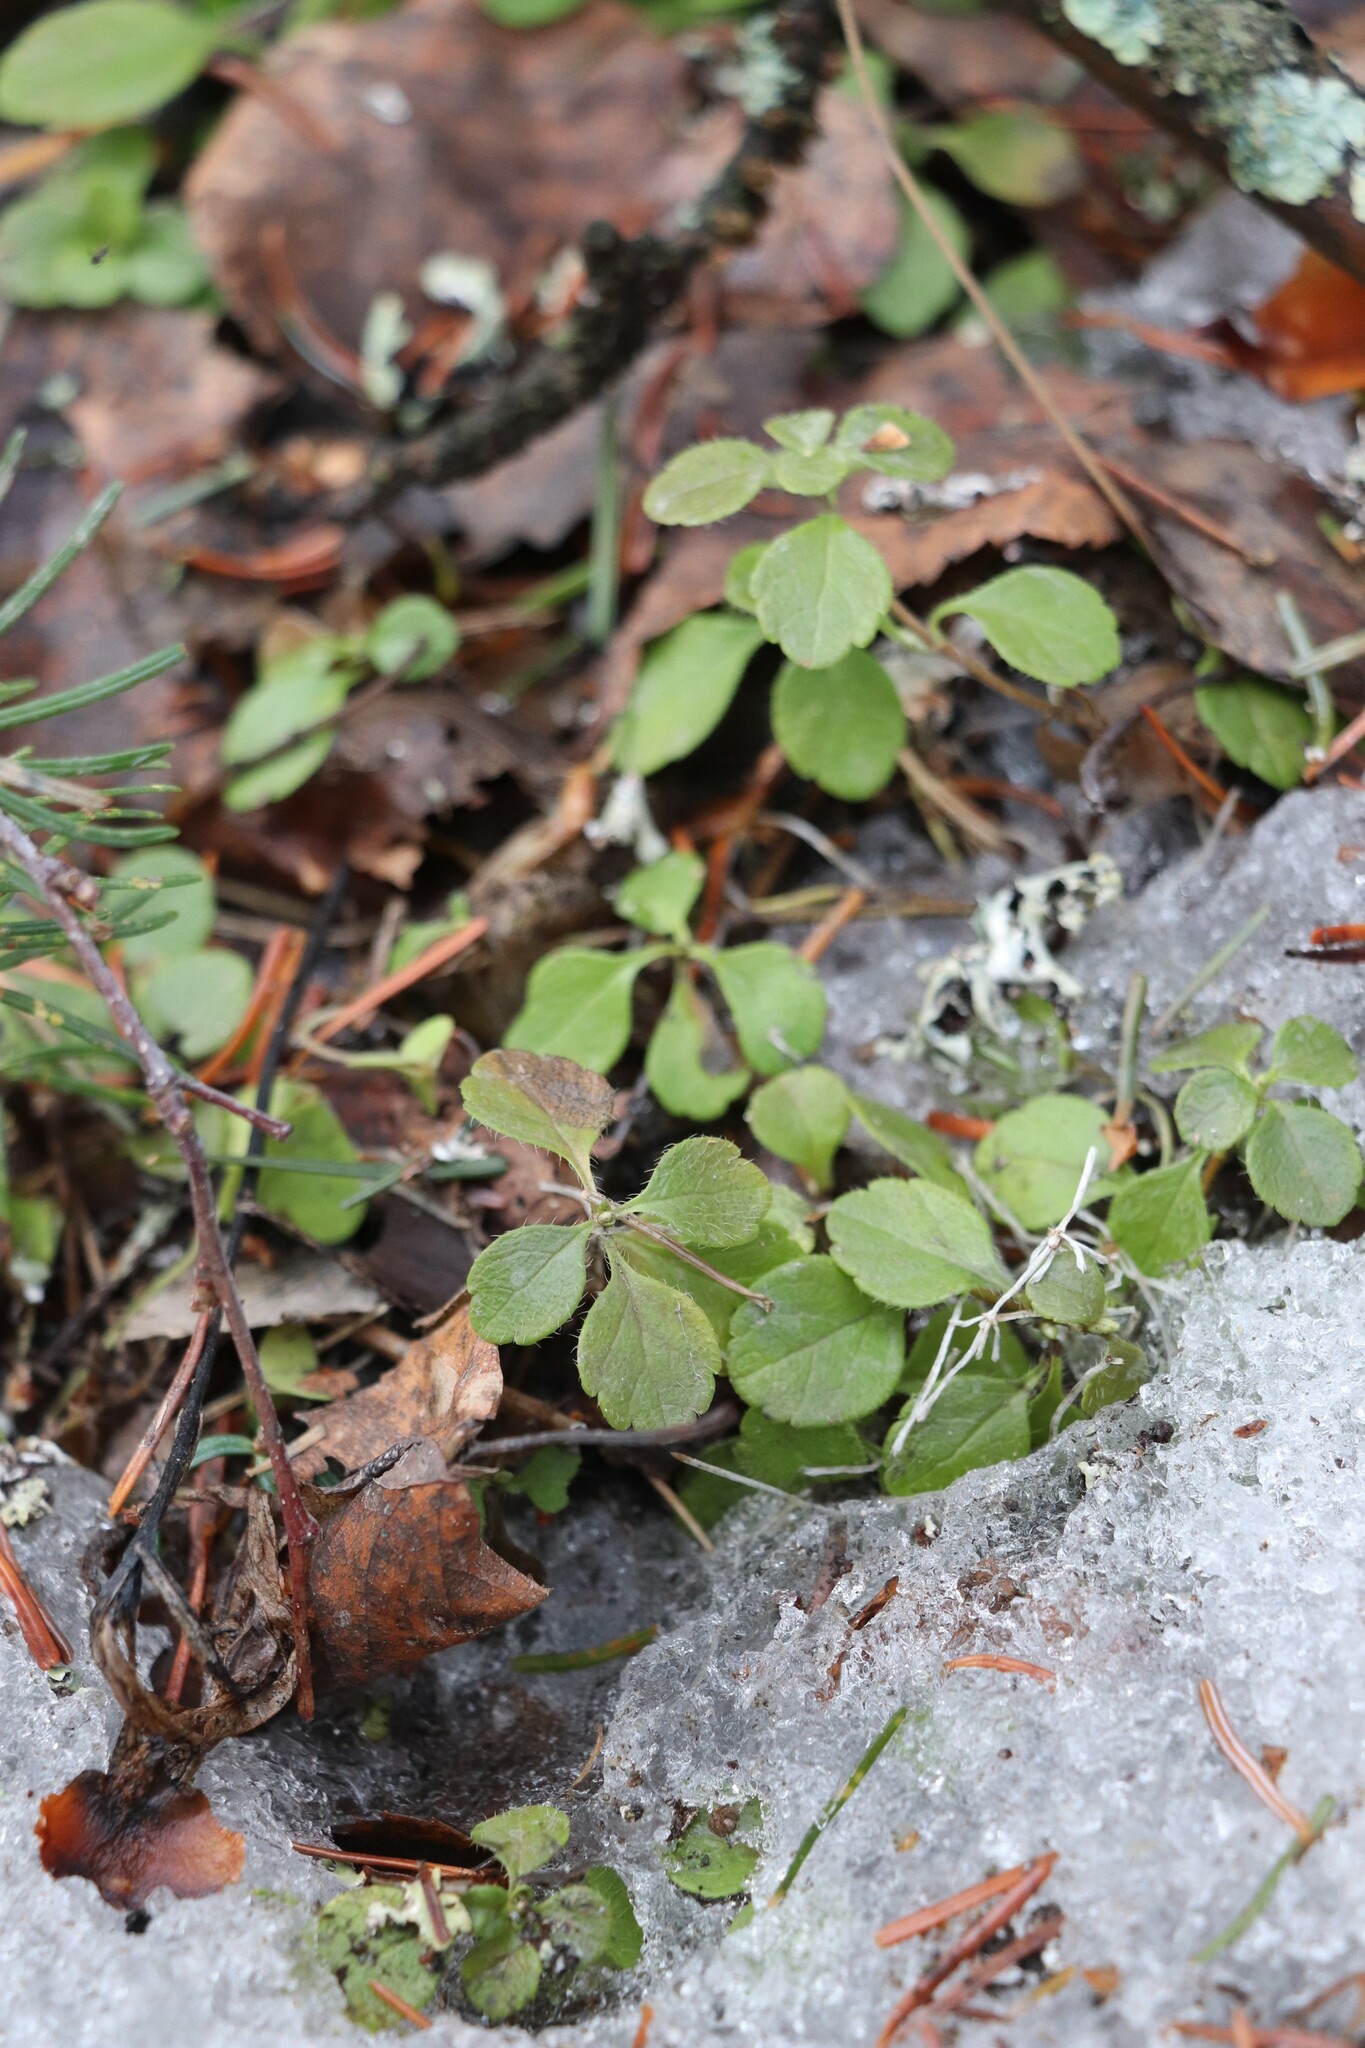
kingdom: Plantae
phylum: Tracheophyta
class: Magnoliopsida
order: Dipsacales
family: Caprifoliaceae
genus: Linnaea
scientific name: Linnaea borealis
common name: Twinflower
